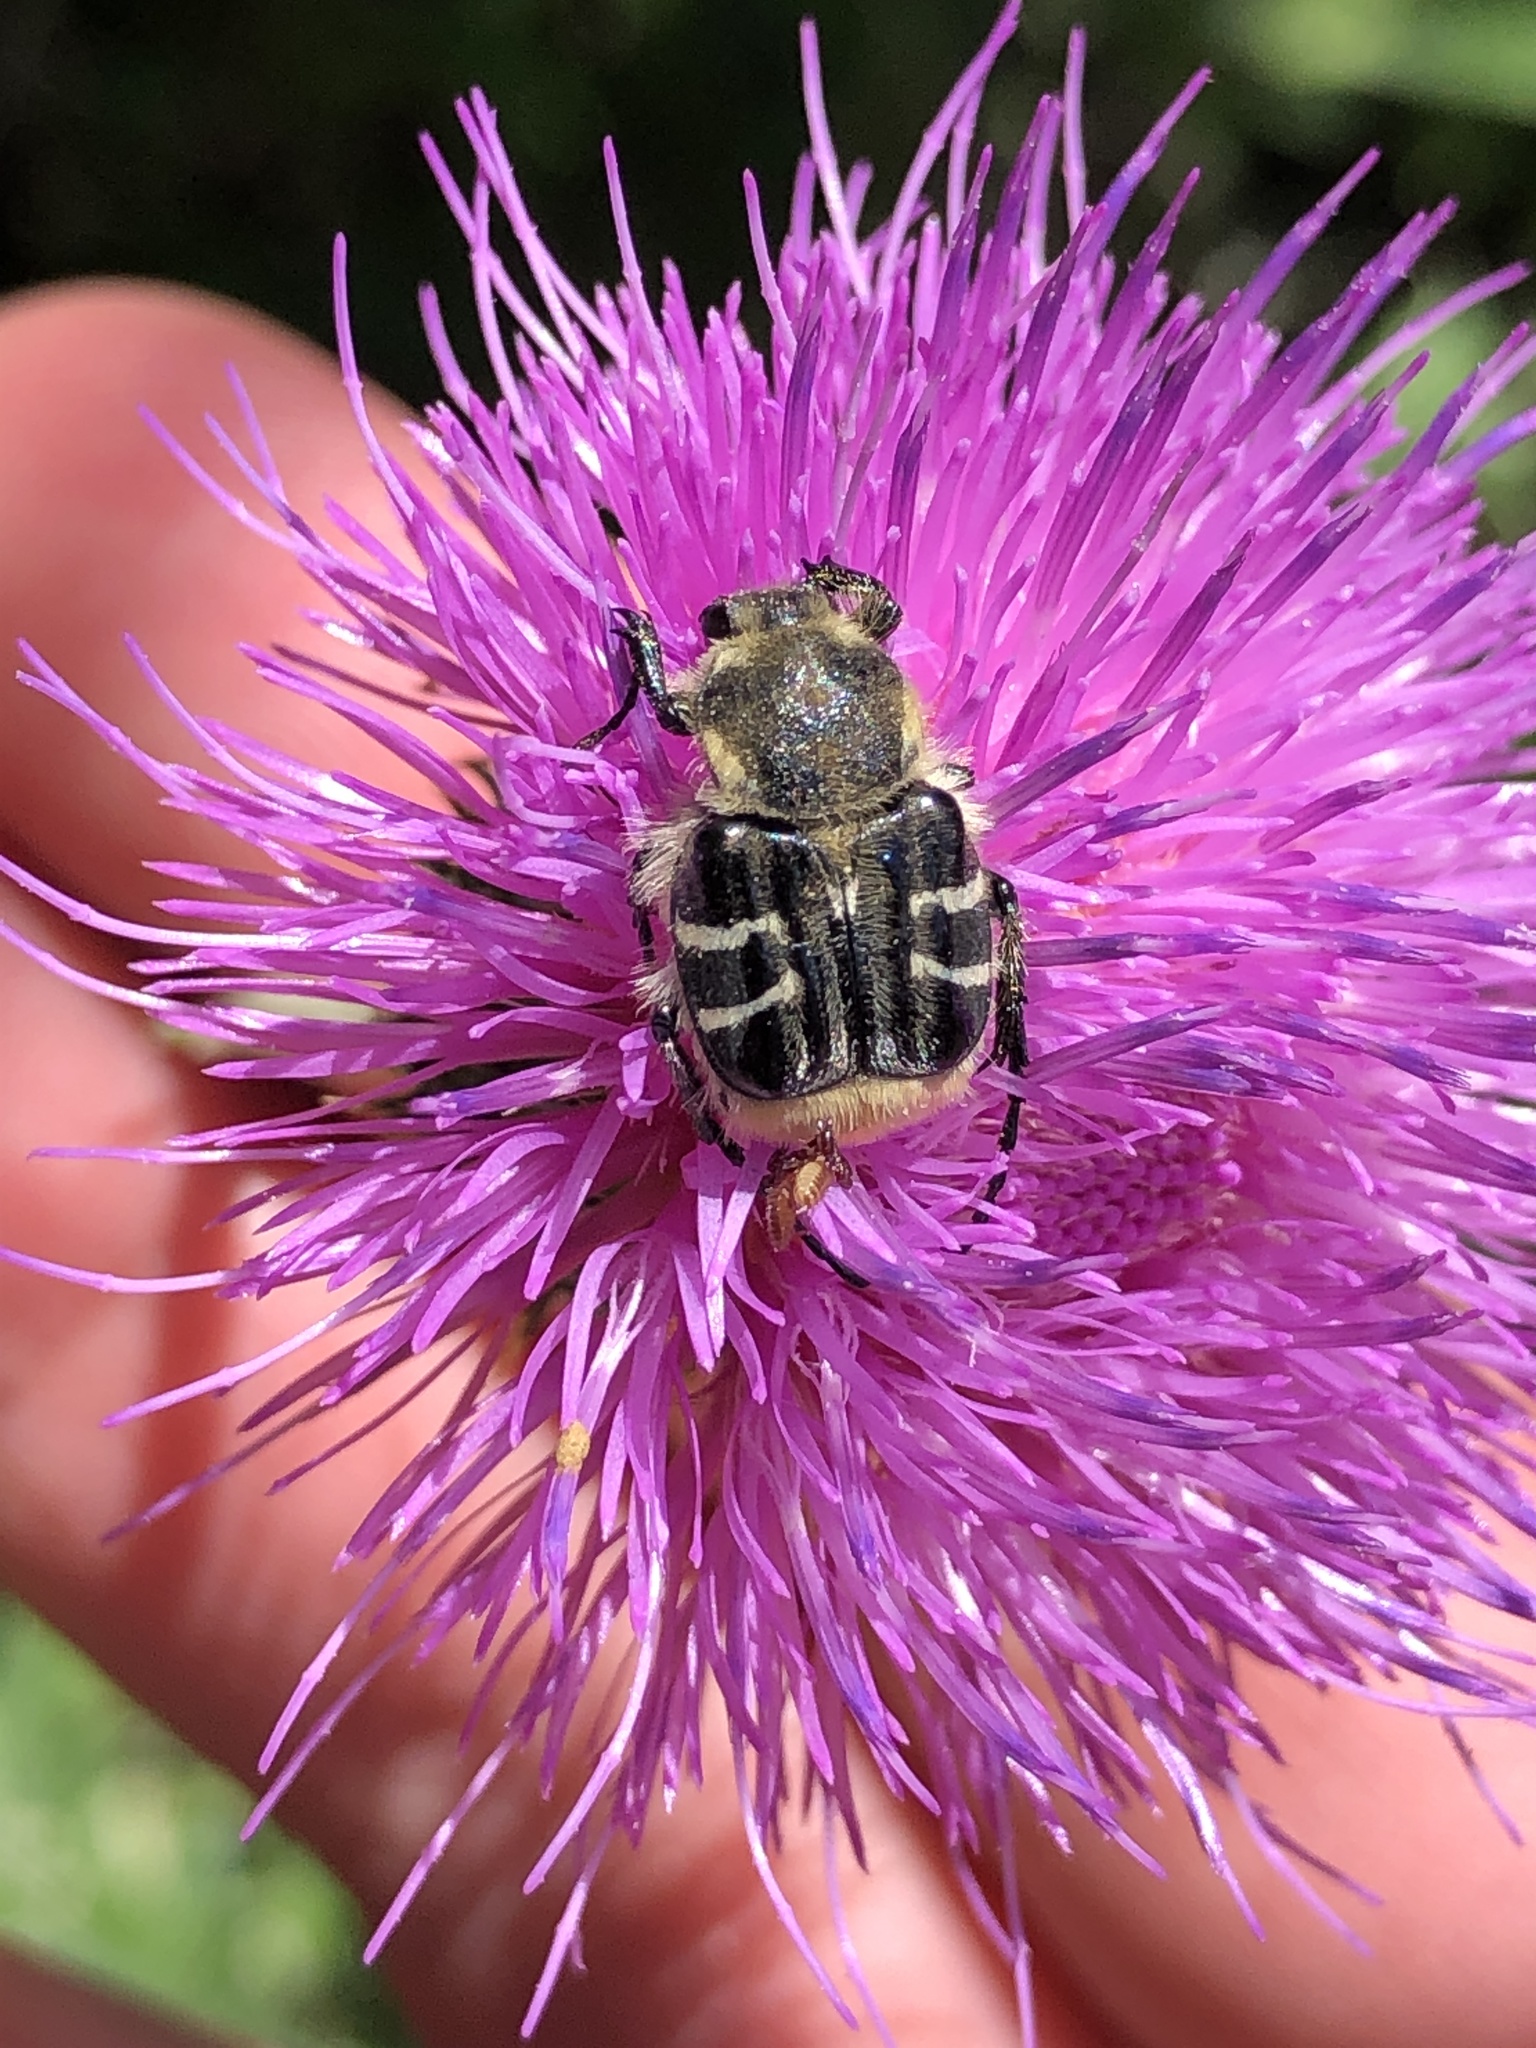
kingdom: Animalia
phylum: Arthropoda
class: Insecta
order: Coleoptera
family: Scarabaeidae
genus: Trichiotinus
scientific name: Trichiotinus texanus
